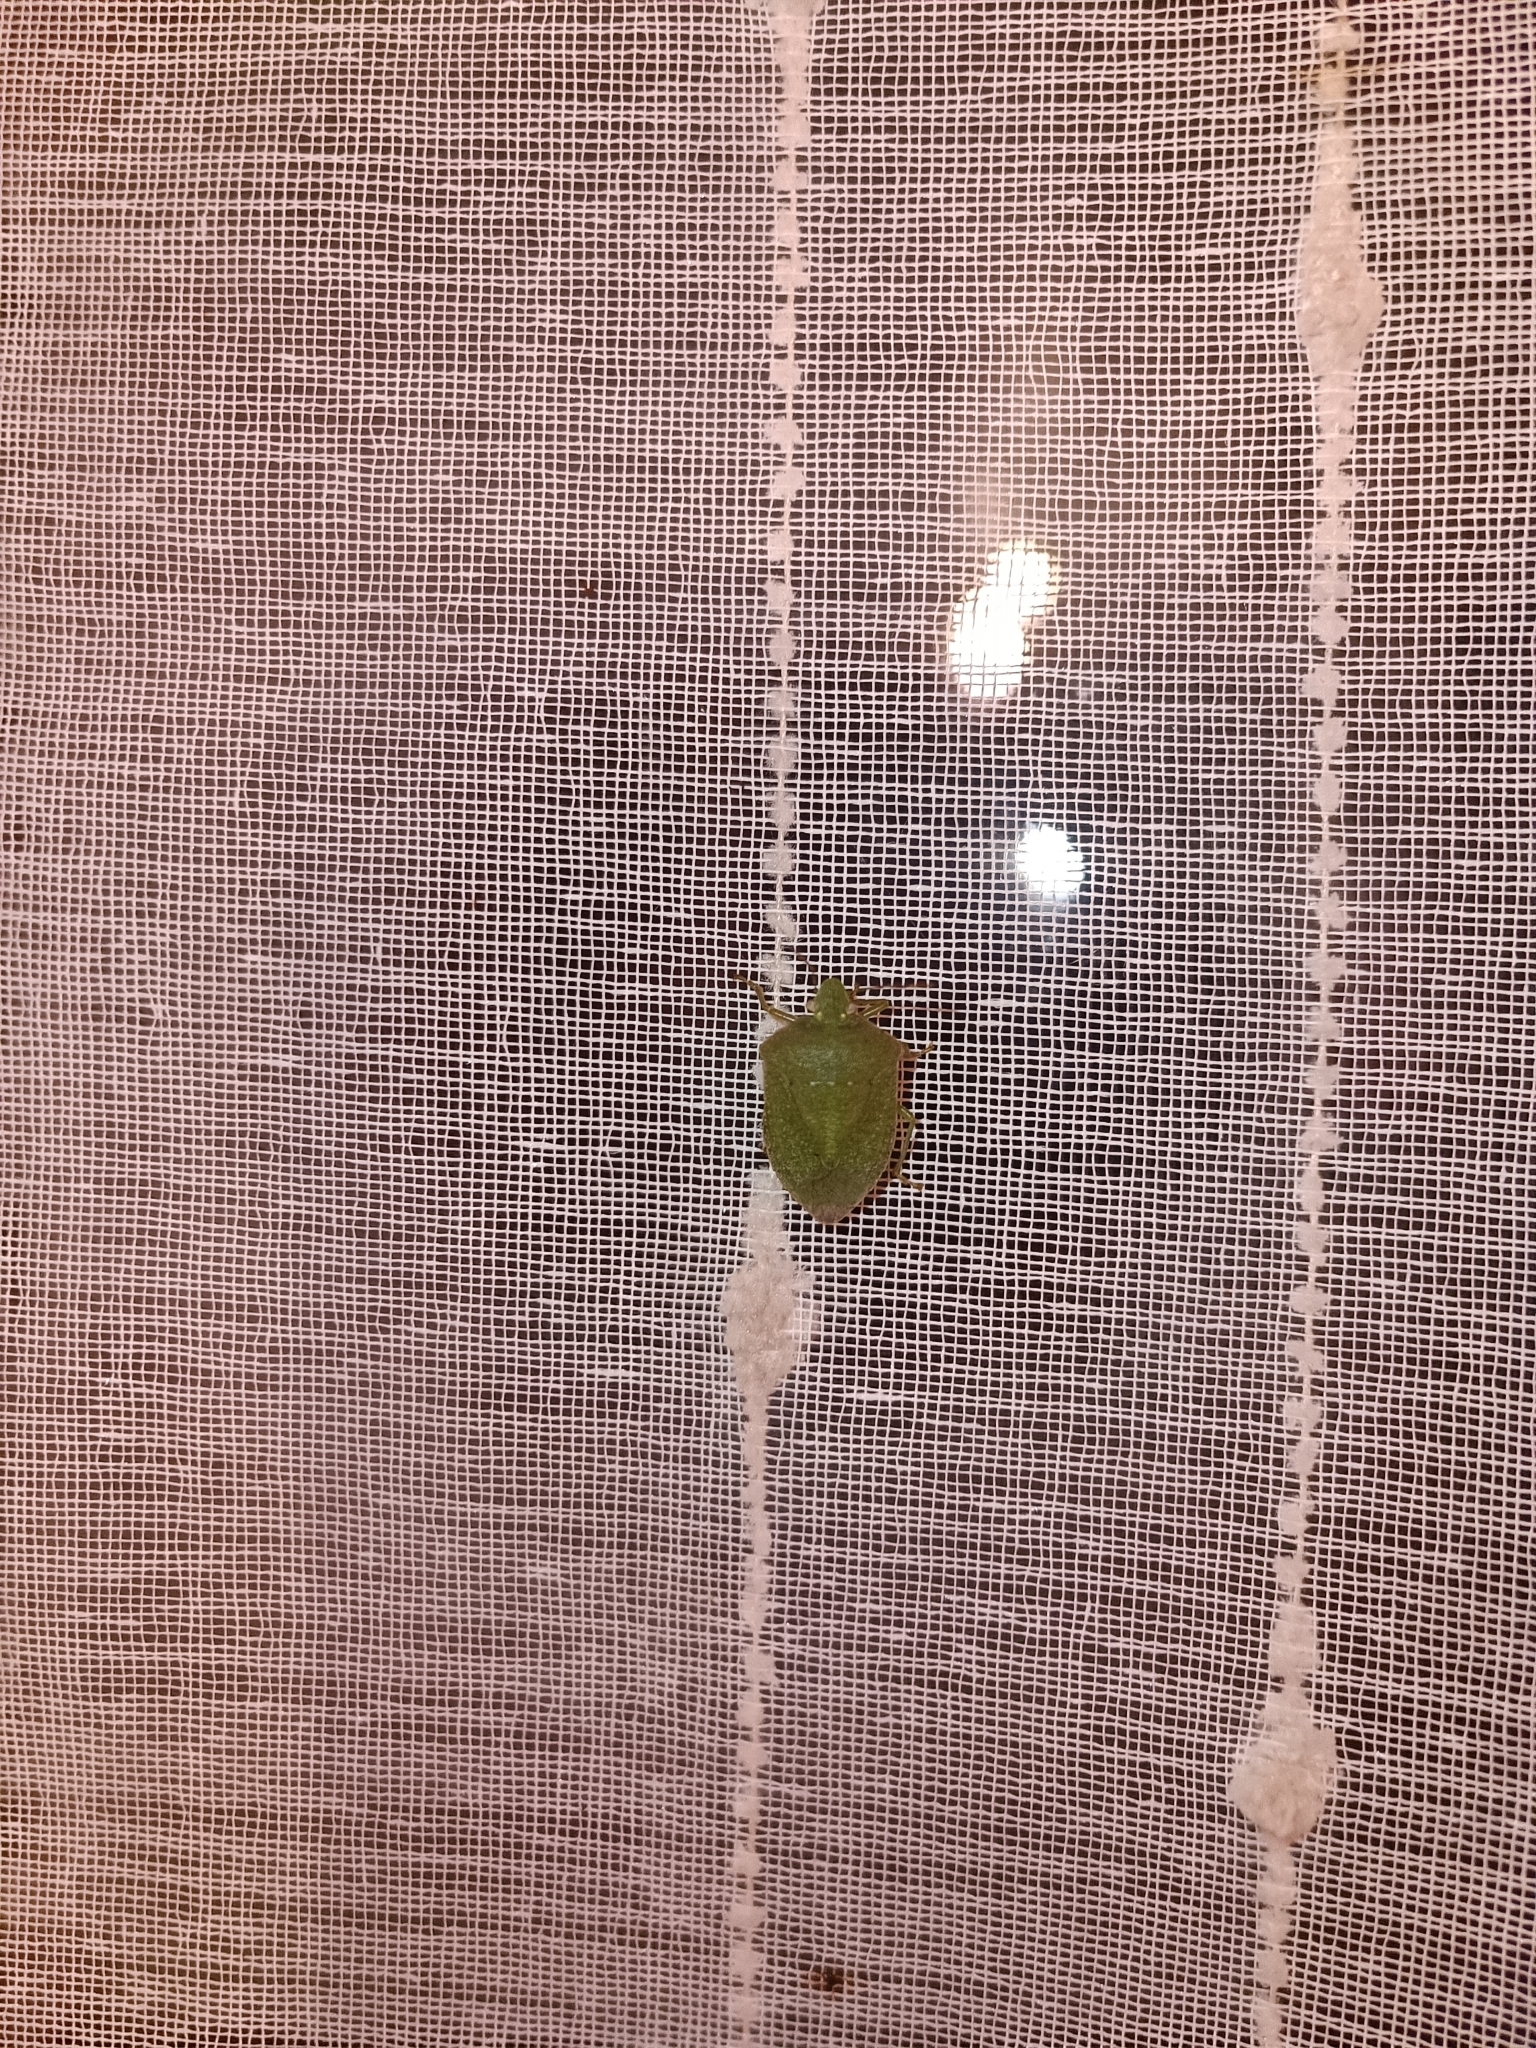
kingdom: Animalia
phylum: Arthropoda
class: Insecta
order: Hemiptera
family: Pentatomidae
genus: Nezara
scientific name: Nezara viridula
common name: Southern green stink bug
